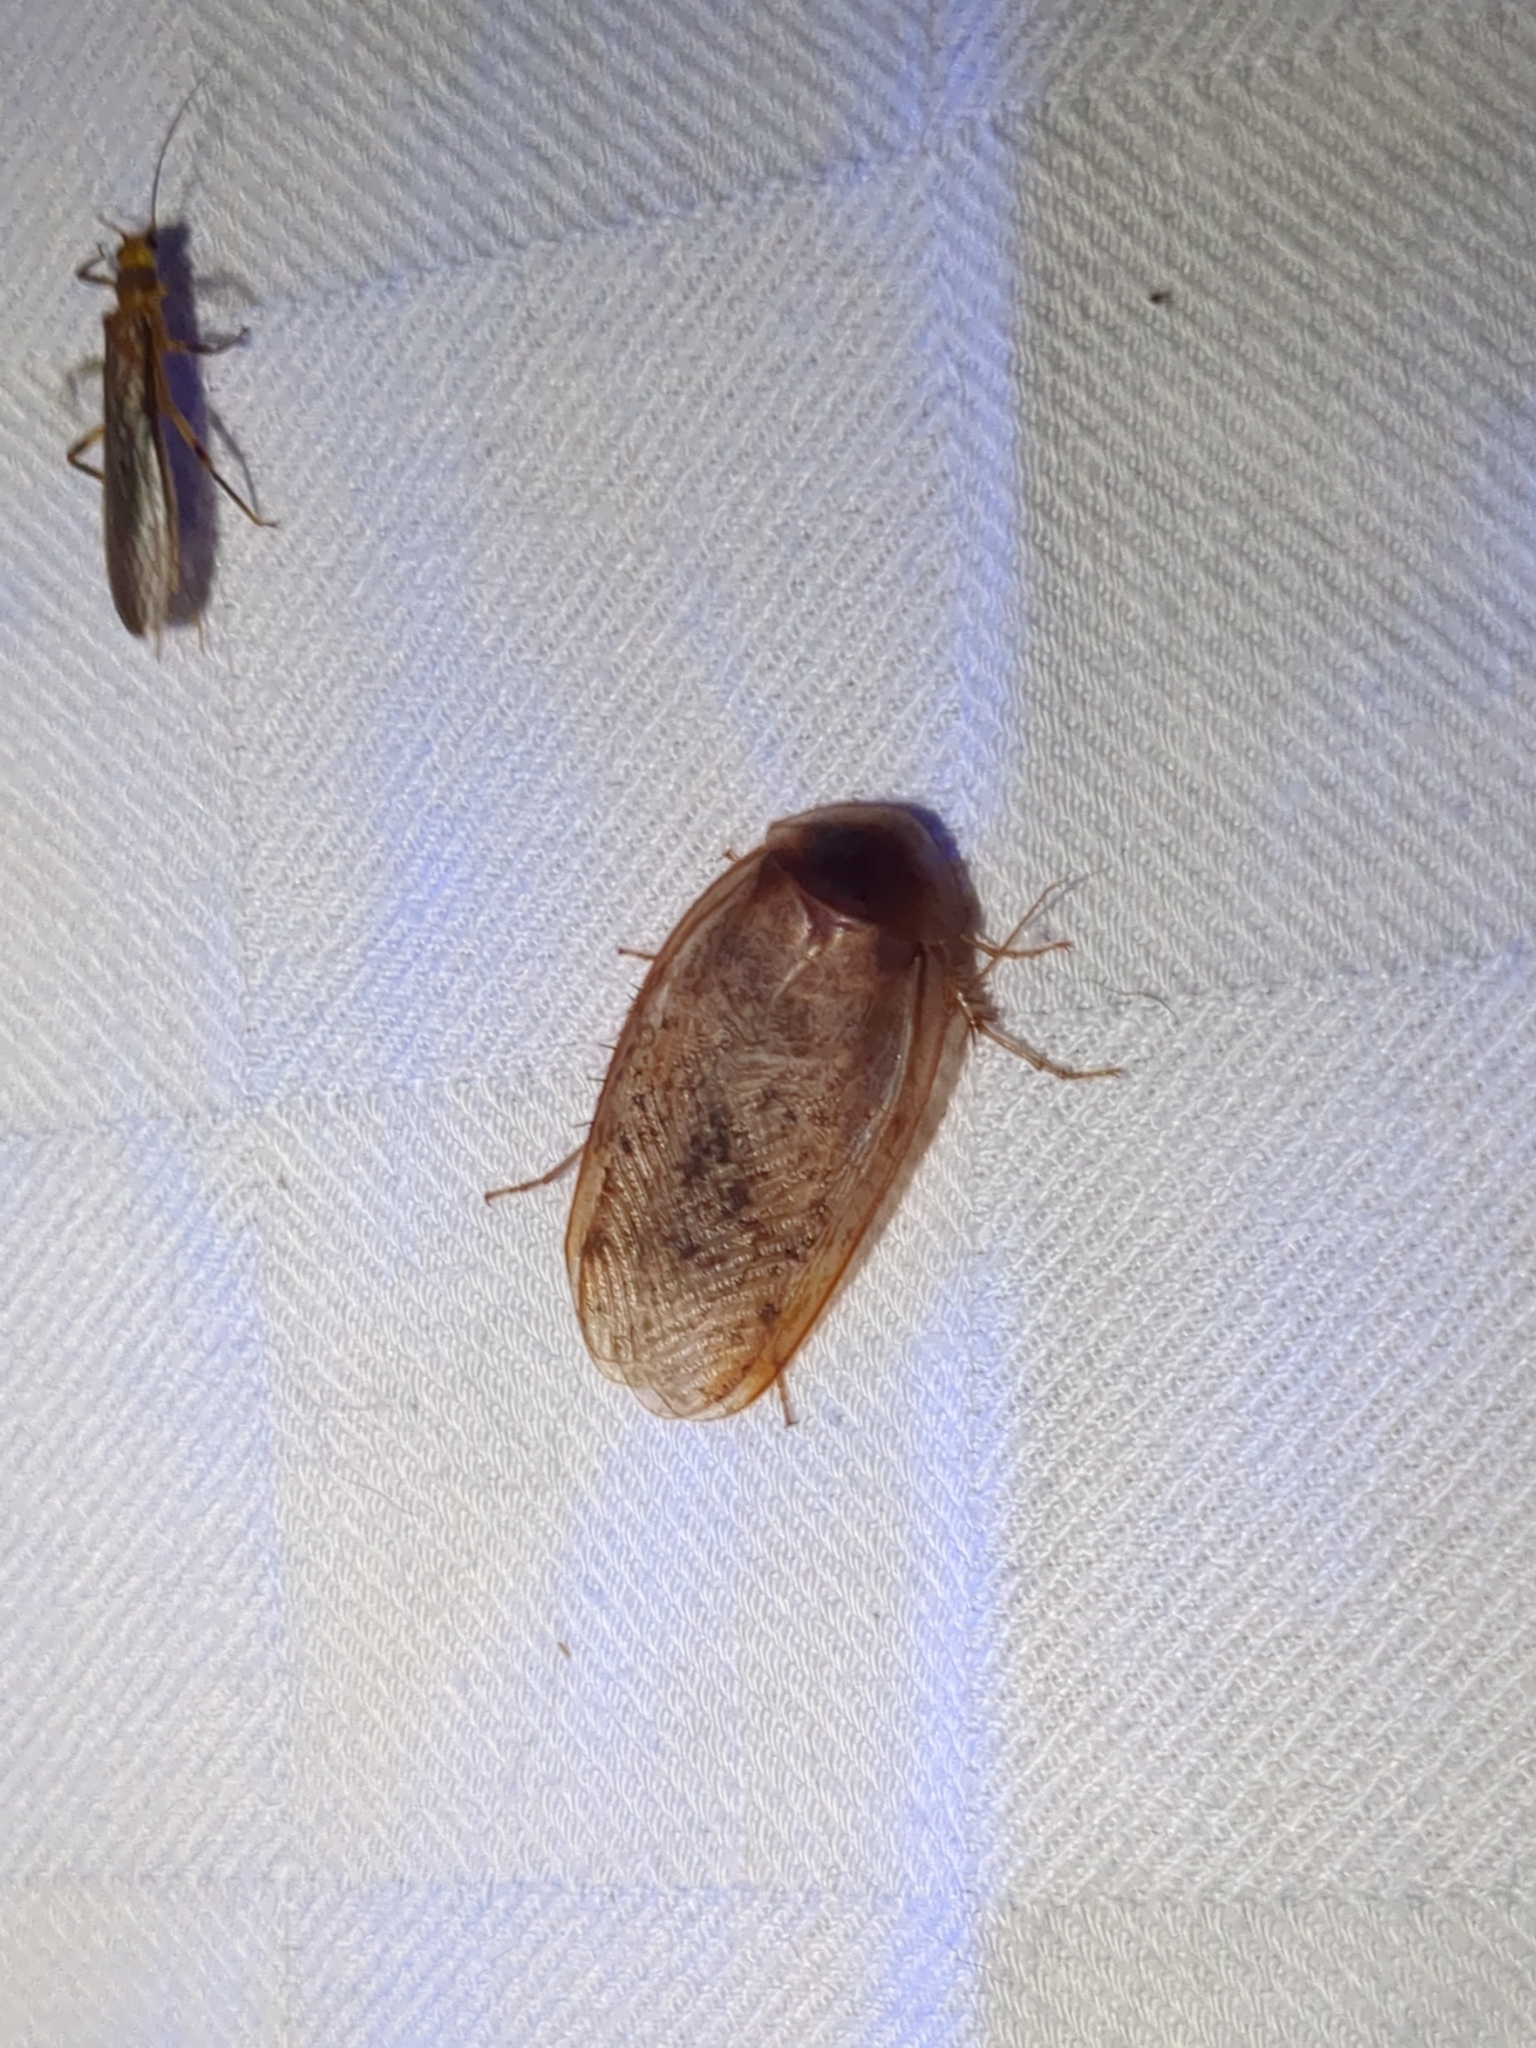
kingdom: Animalia
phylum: Arthropoda
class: Insecta
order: Blattodea
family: Corydiidae
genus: Arenivaga
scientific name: Arenivaga bolliana
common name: Boll's sand cockroach
